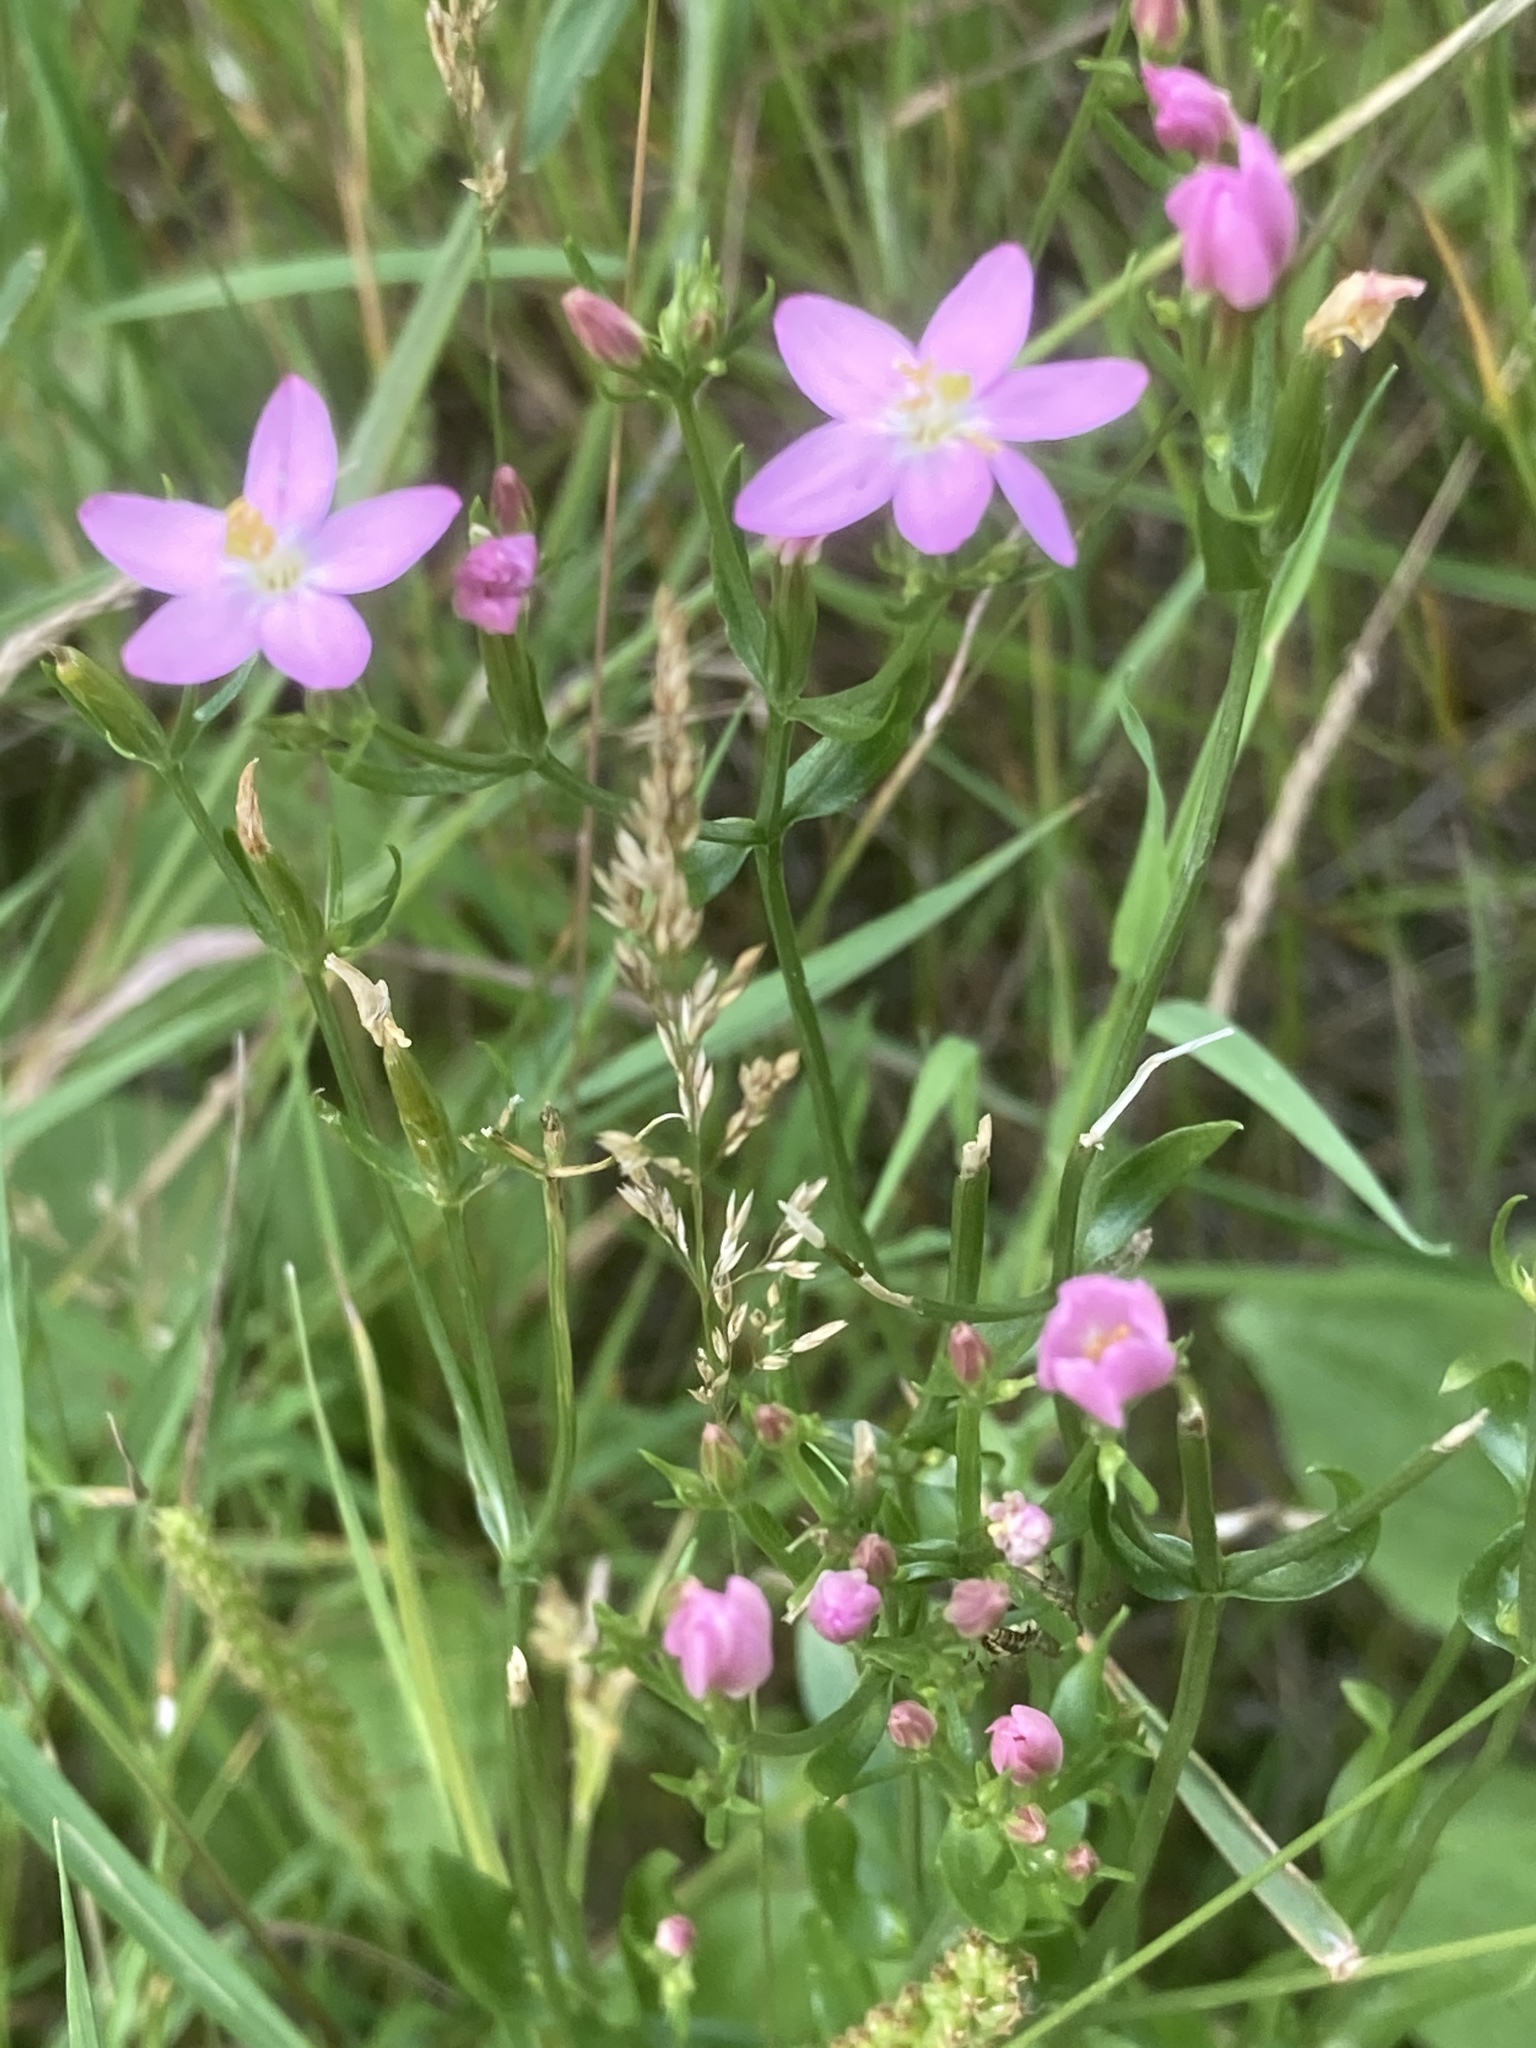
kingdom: Plantae
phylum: Tracheophyta
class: Magnoliopsida
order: Gentianales
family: Gentianaceae
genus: Centaurium
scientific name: Centaurium erythraea
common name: Common centaury
